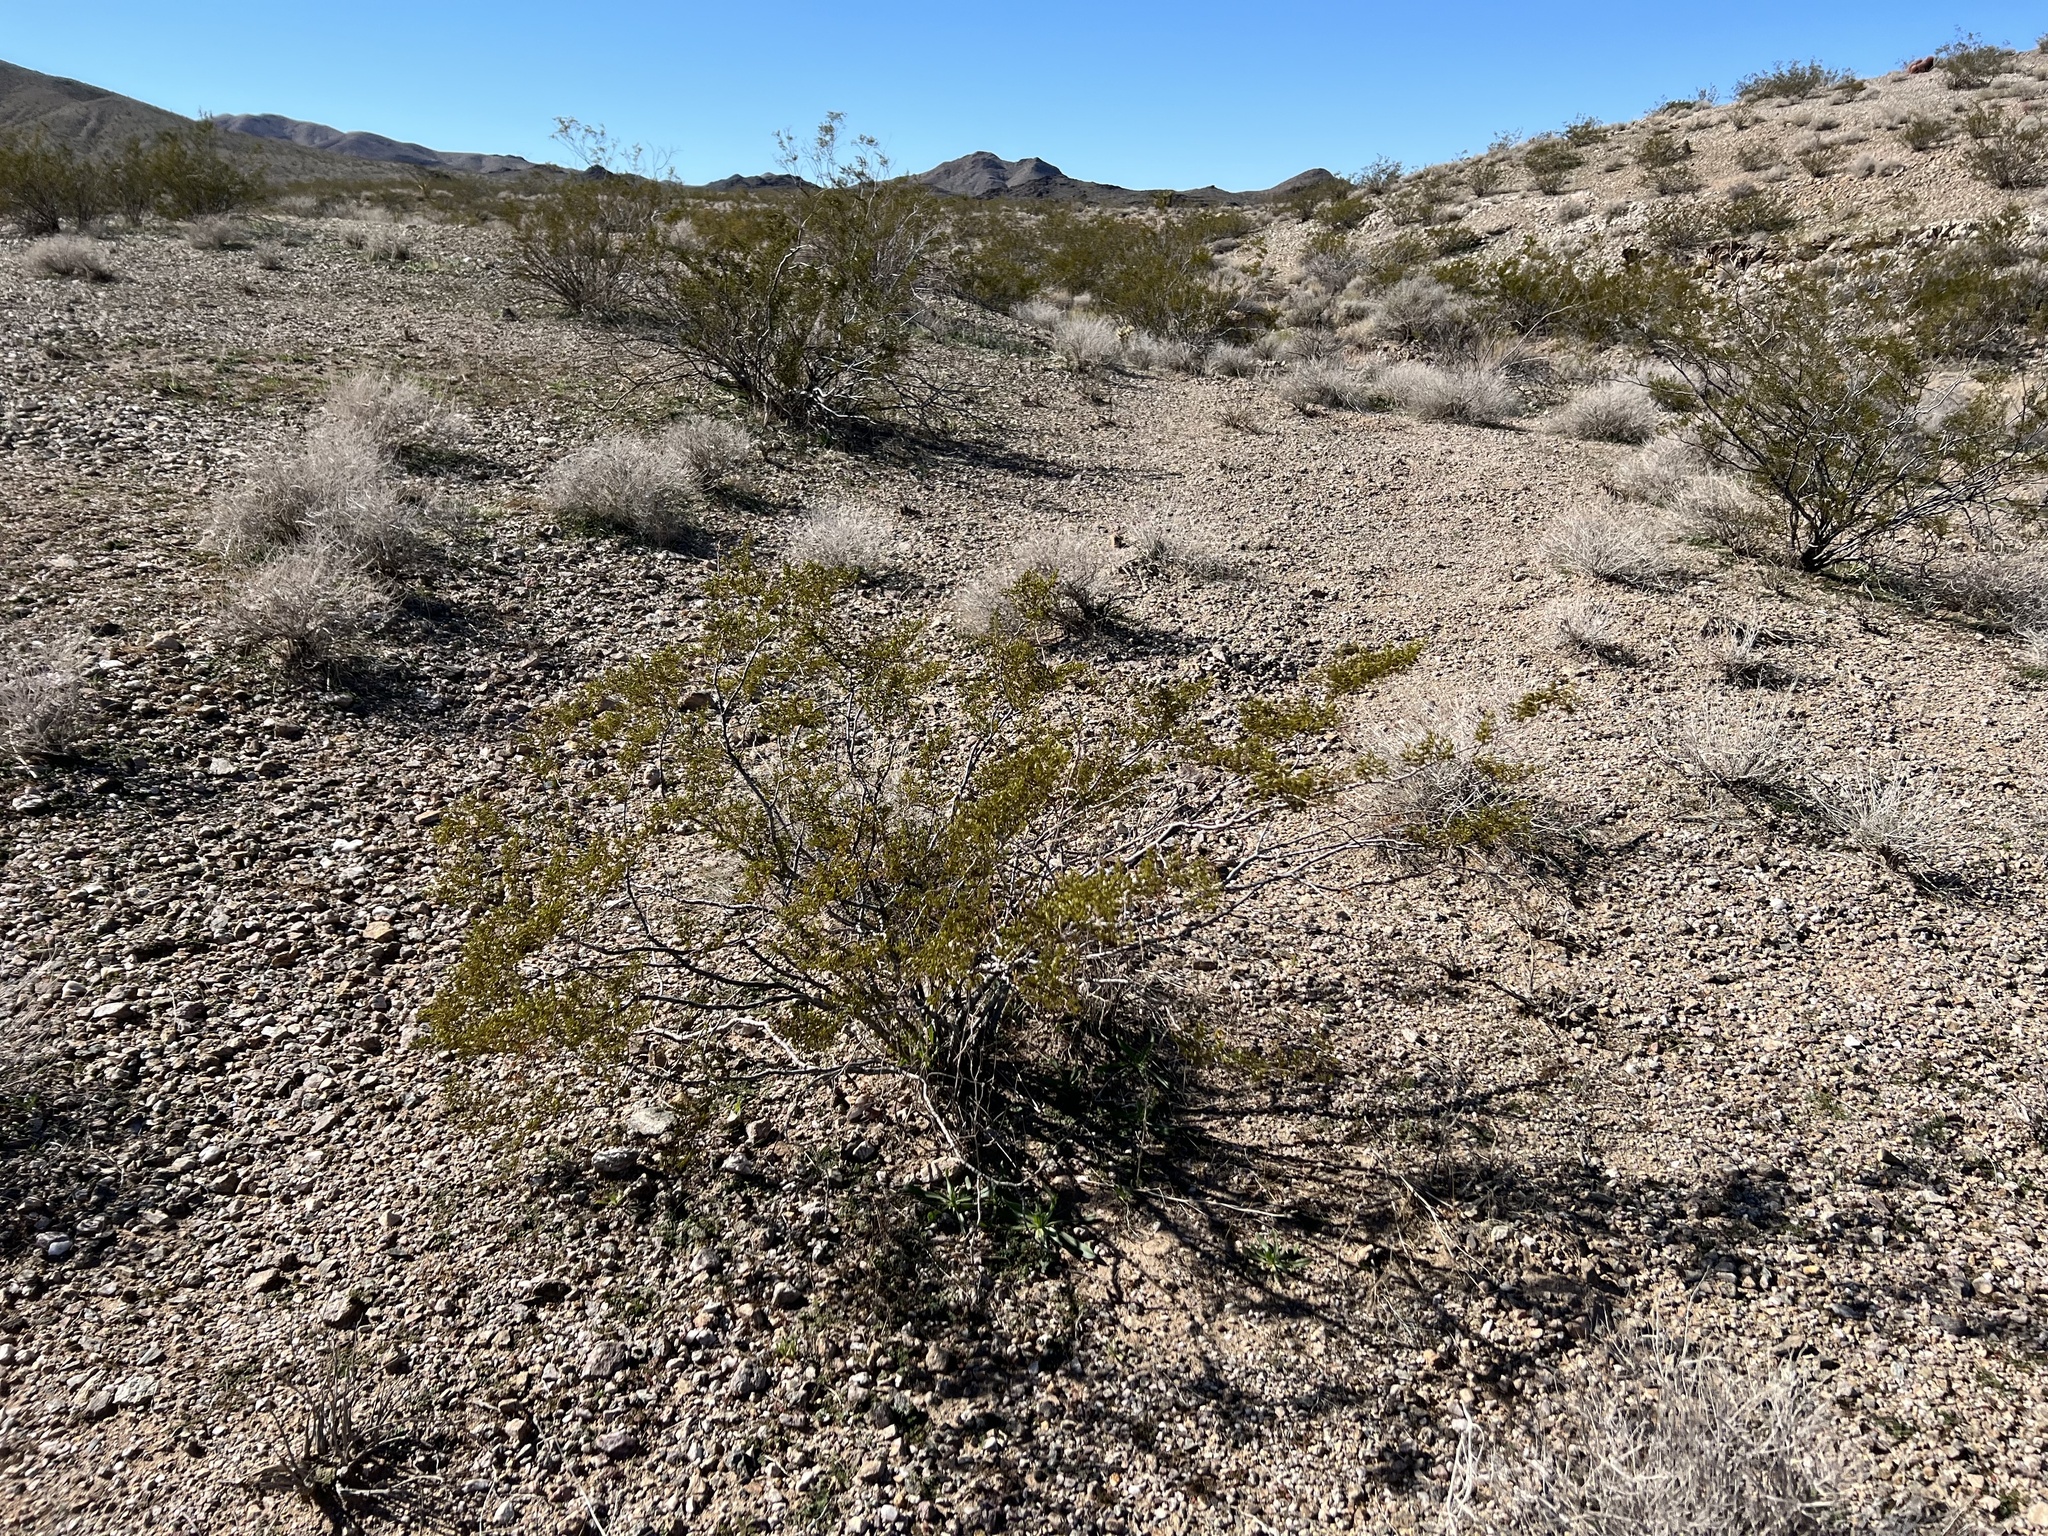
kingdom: Plantae
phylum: Tracheophyta
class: Magnoliopsida
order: Zygophyllales
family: Zygophyllaceae
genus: Larrea
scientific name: Larrea tridentata
